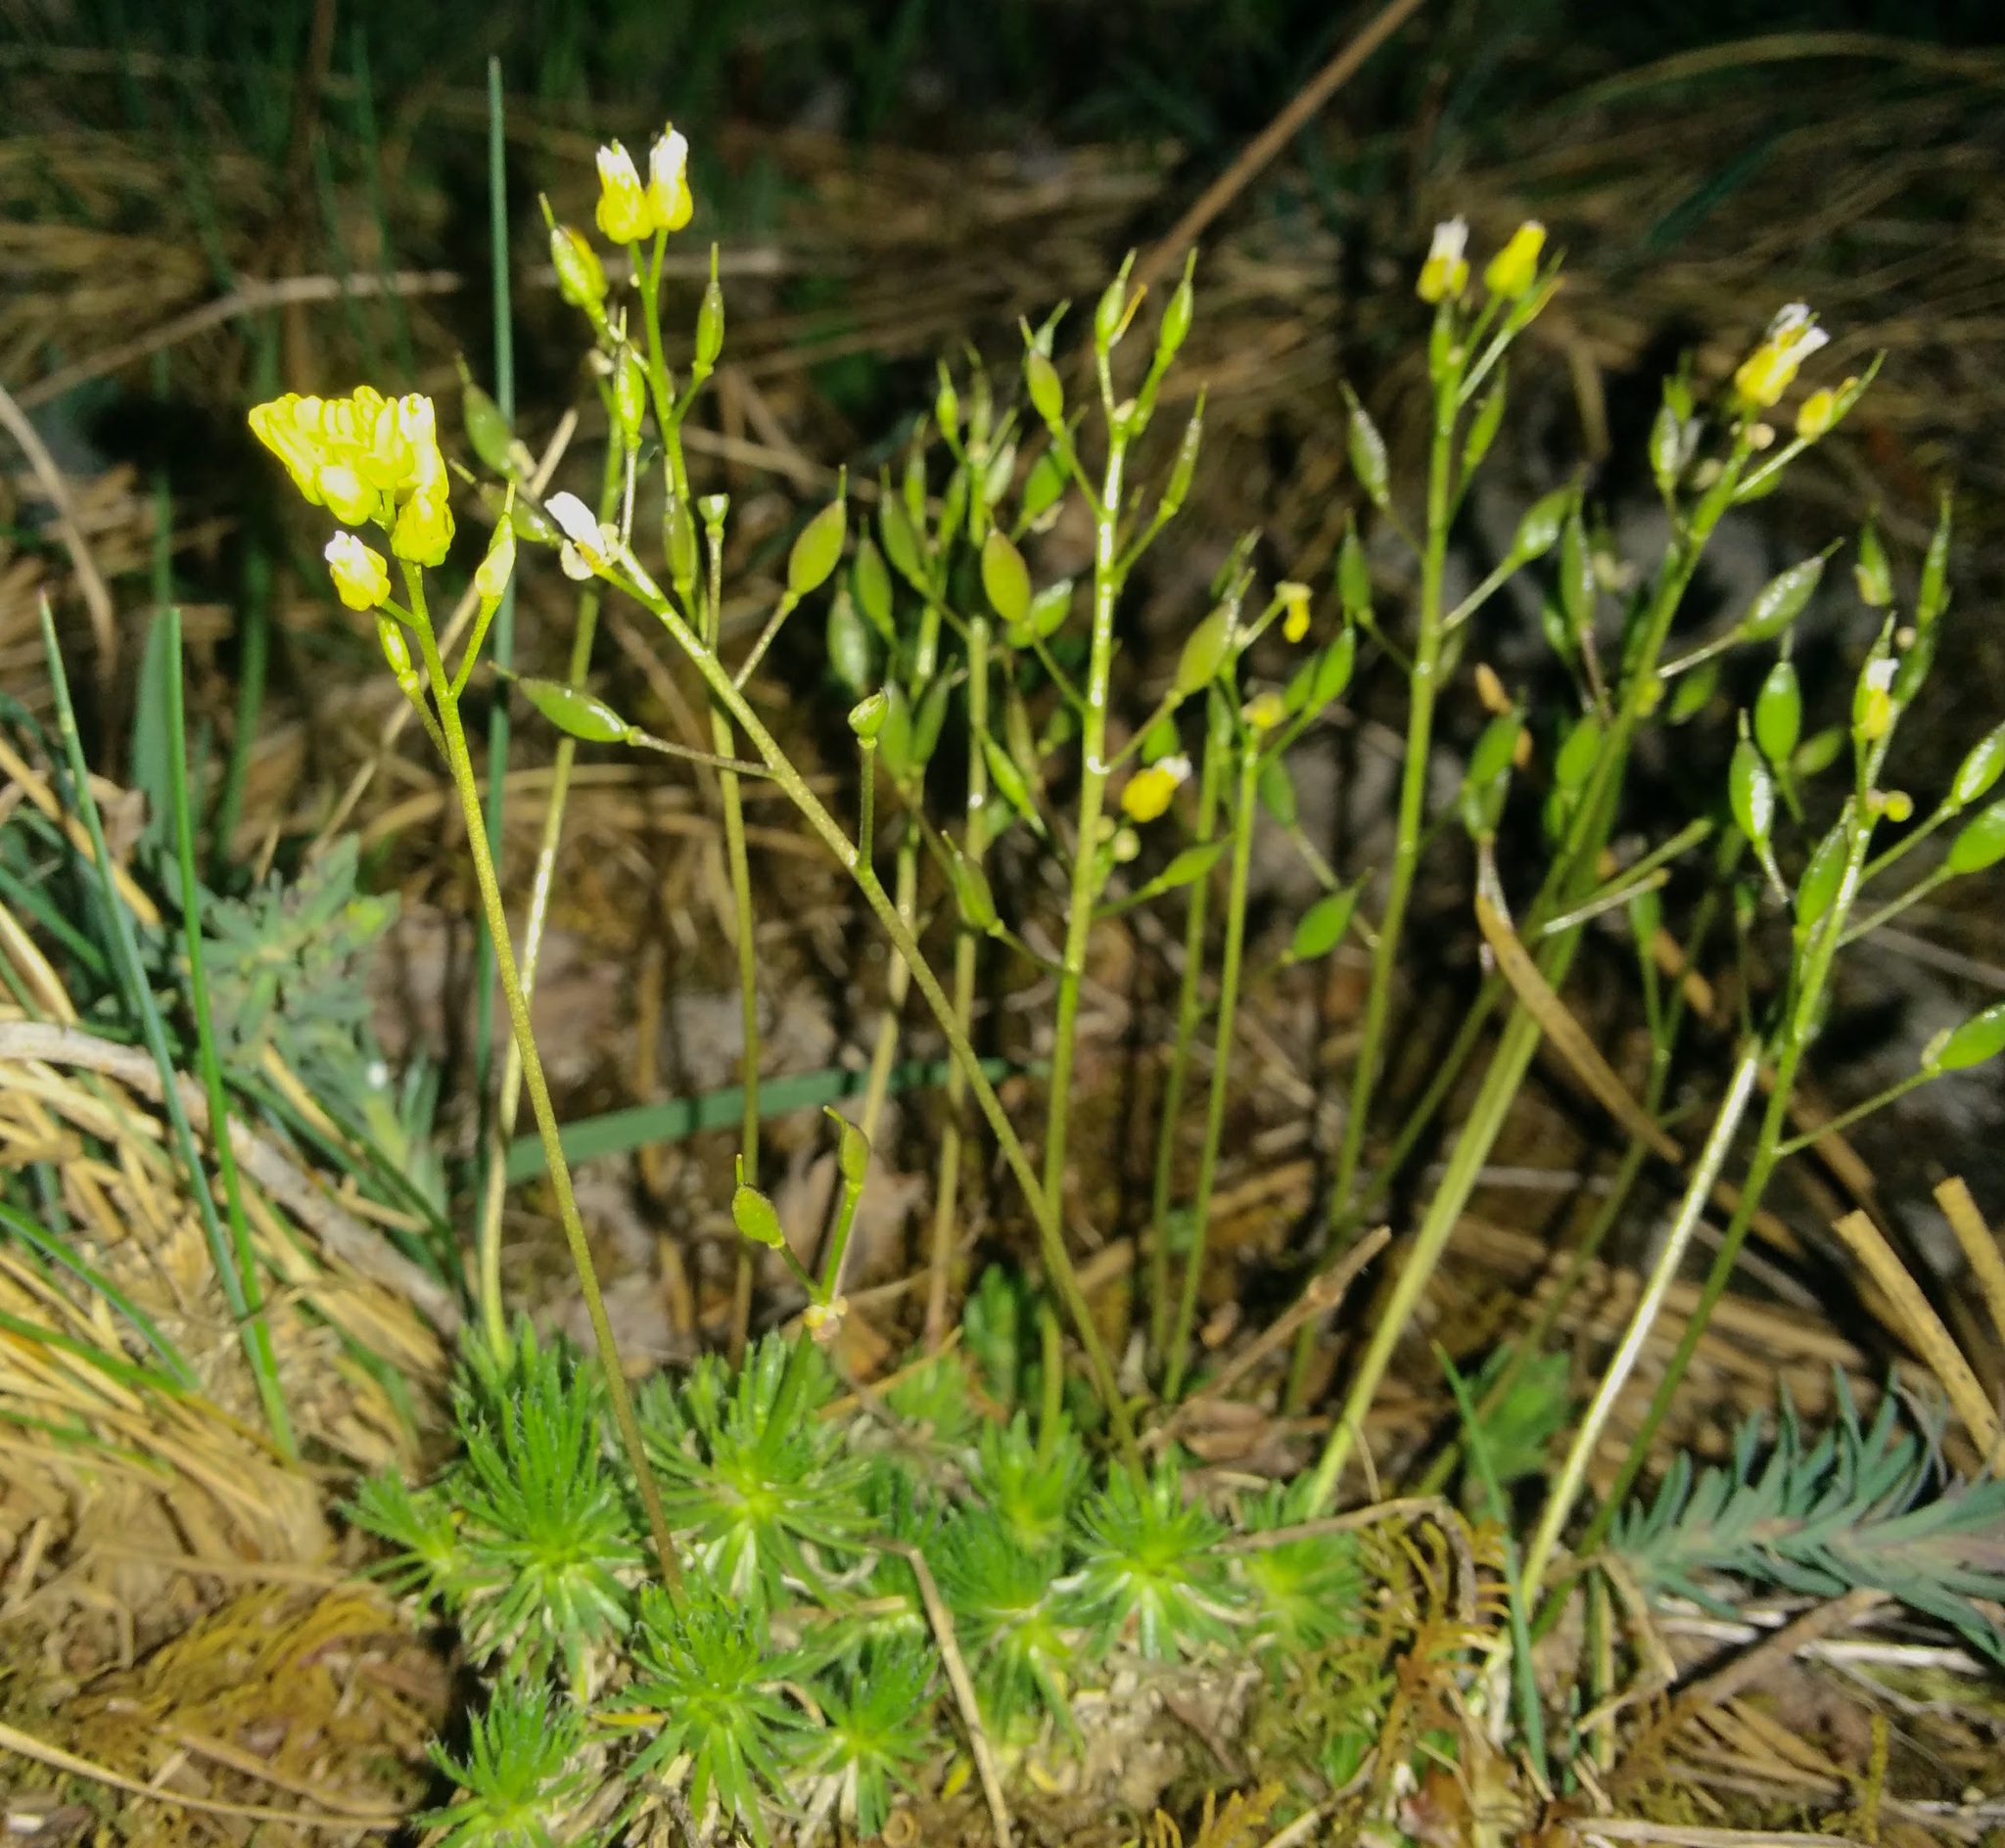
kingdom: Plantae
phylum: Tracheophyta
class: Magnoliopsida
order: Brassicales
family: Brassicaceae
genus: Draba
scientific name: Draba aizoides
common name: Yellow whitlowgrass
